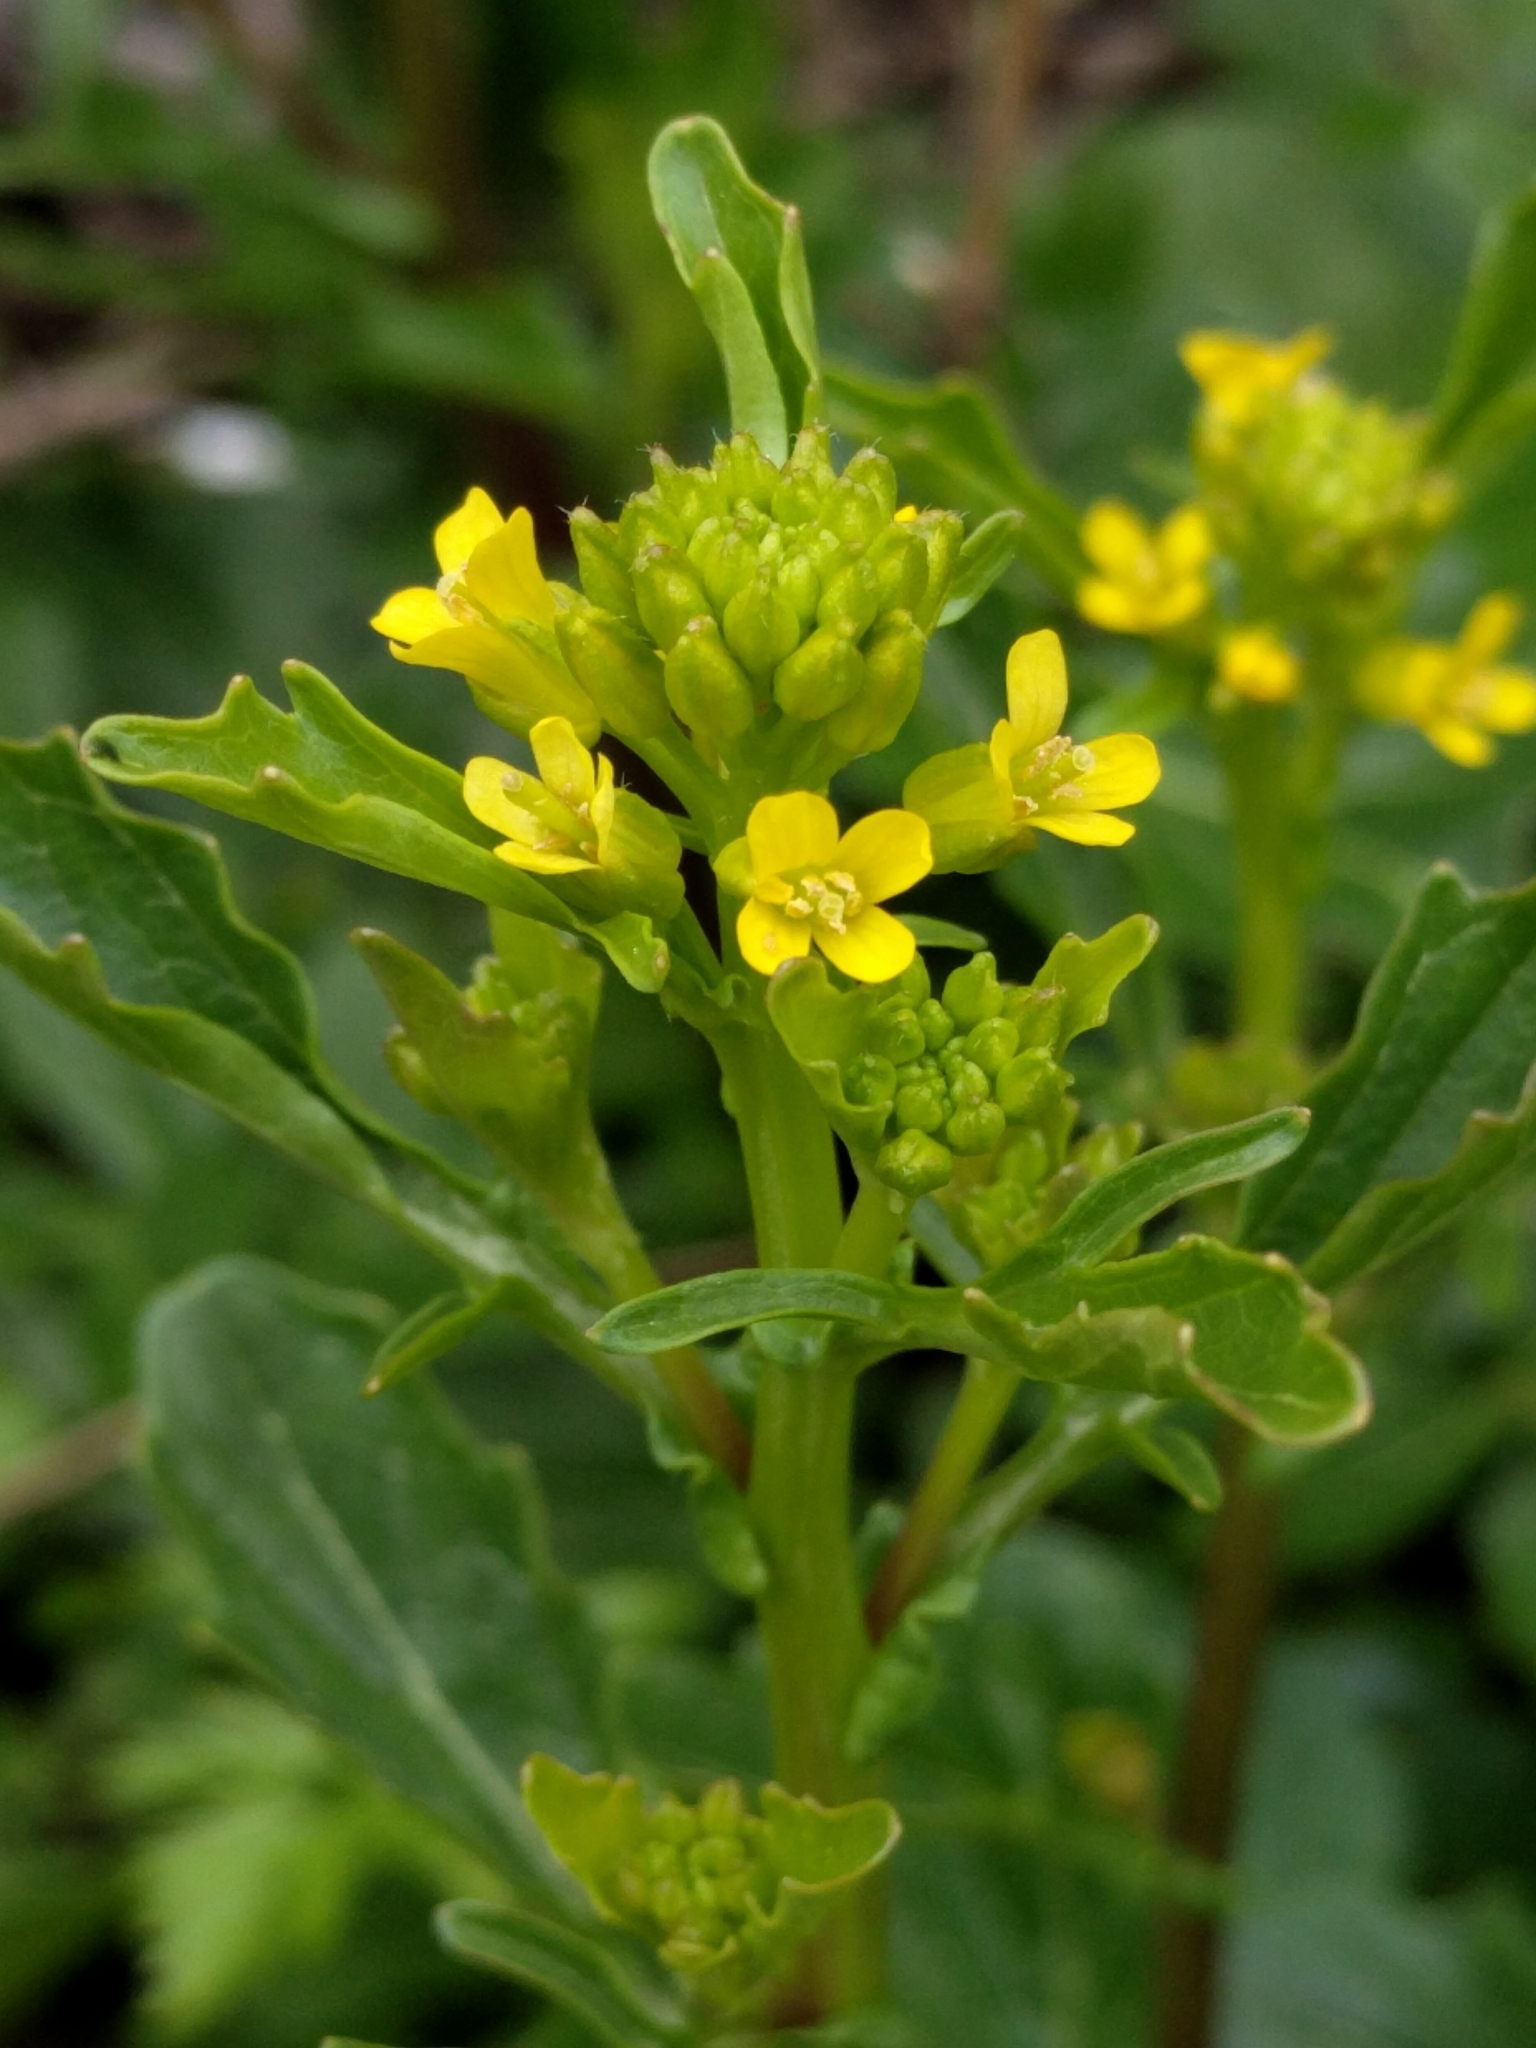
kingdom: Plantae
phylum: Tracheophyta
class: Magnoliopsida
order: Brassicales
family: Brassicaceae
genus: Barbarea
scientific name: Barbarea orthoceras
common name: American wintercress
